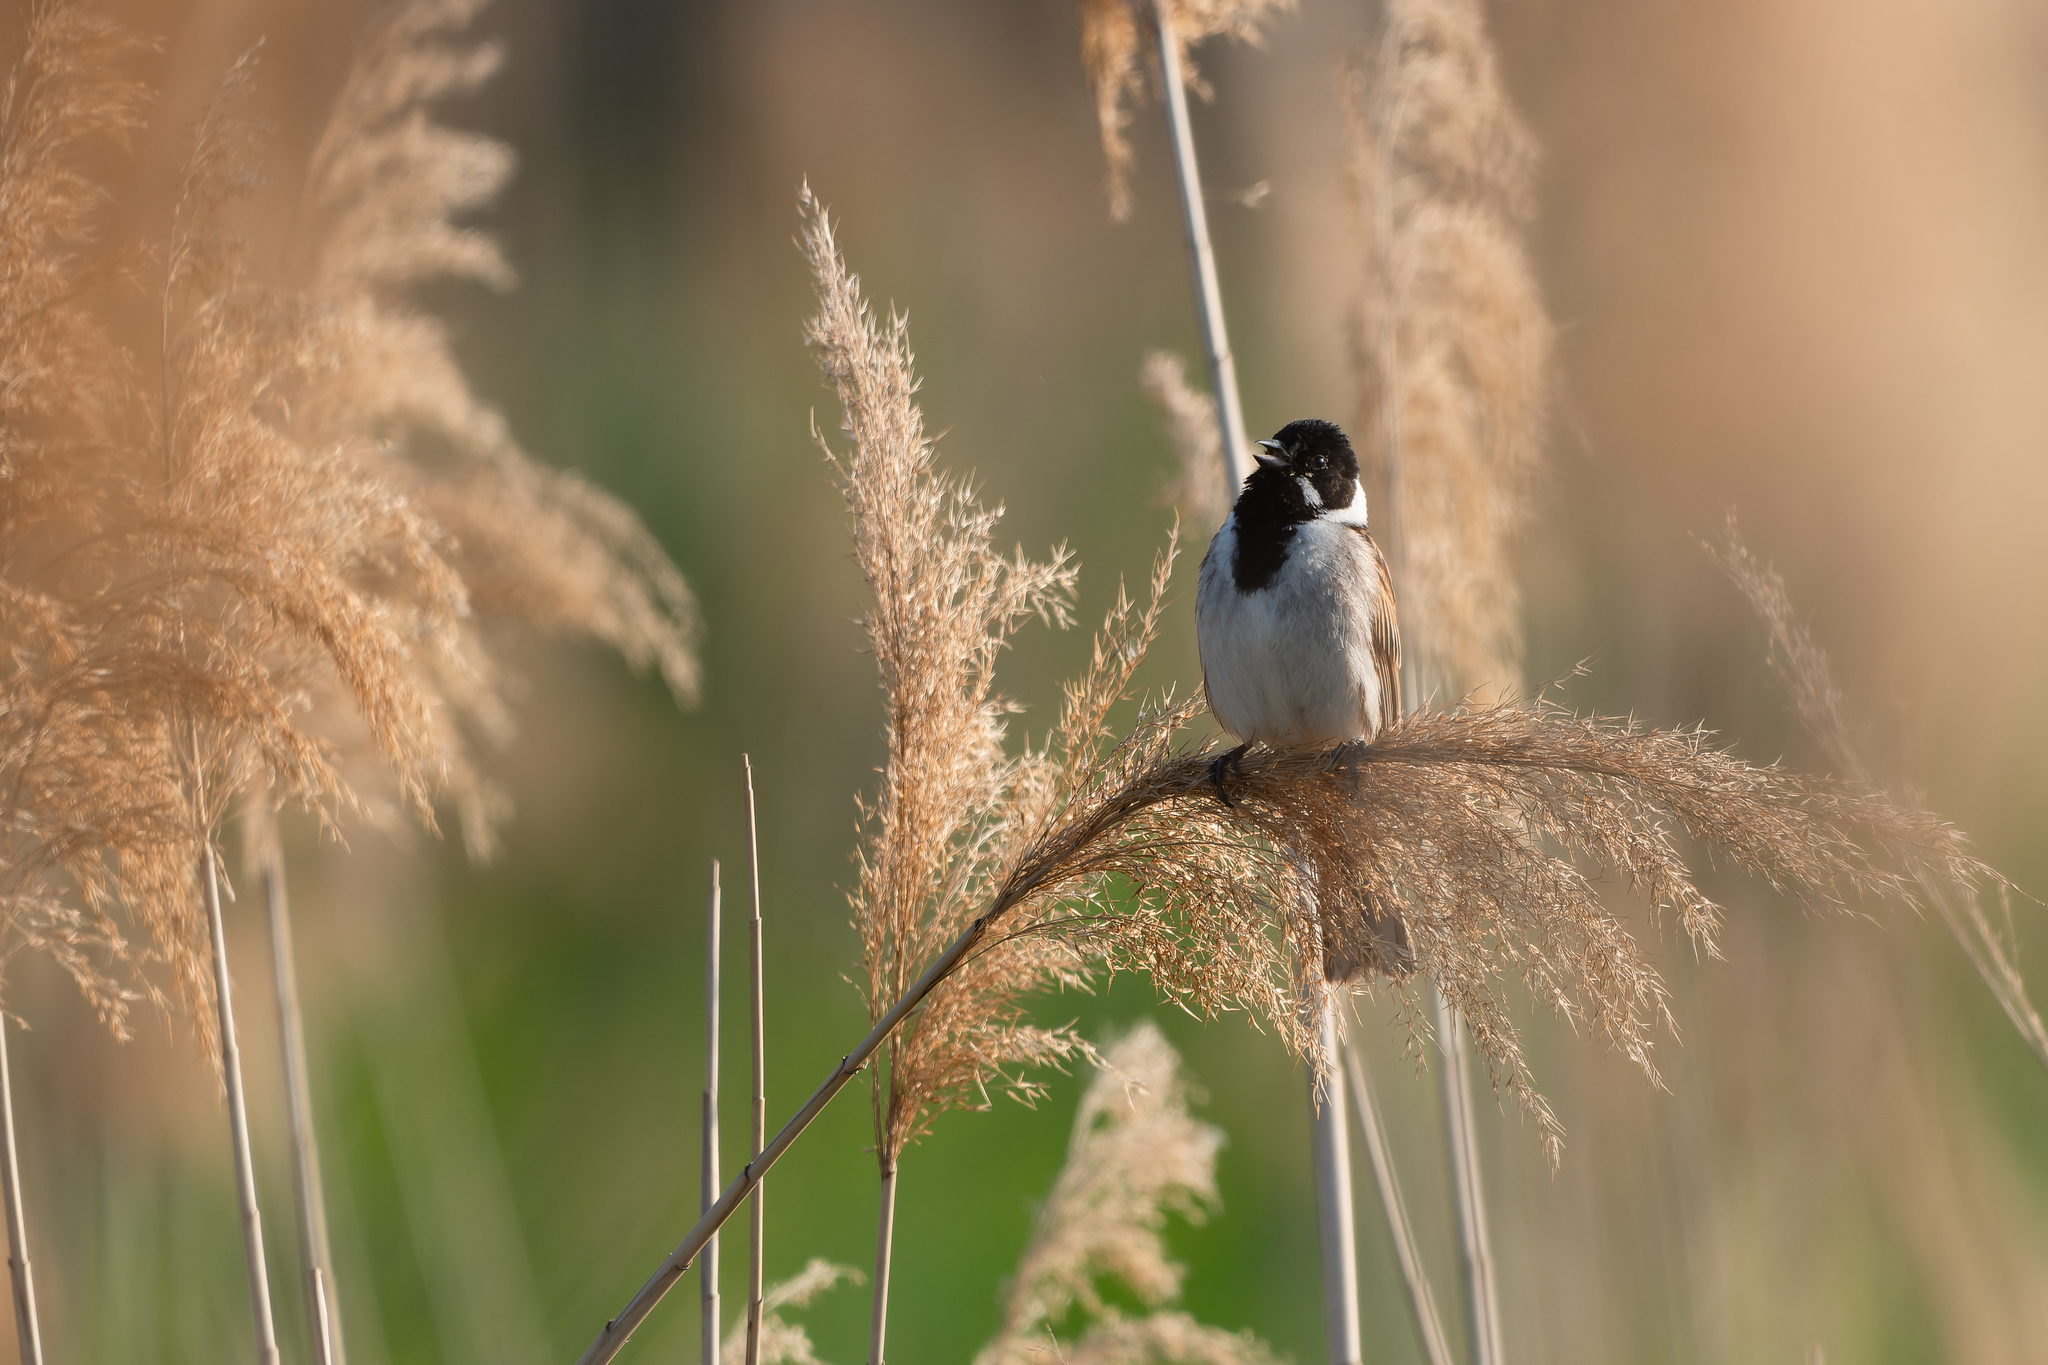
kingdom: Animalia
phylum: Chordata
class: Aves
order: Passeriformes
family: Emberizidae
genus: Emberiza
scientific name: Emberiza schoeniclus
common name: Reed bunting
